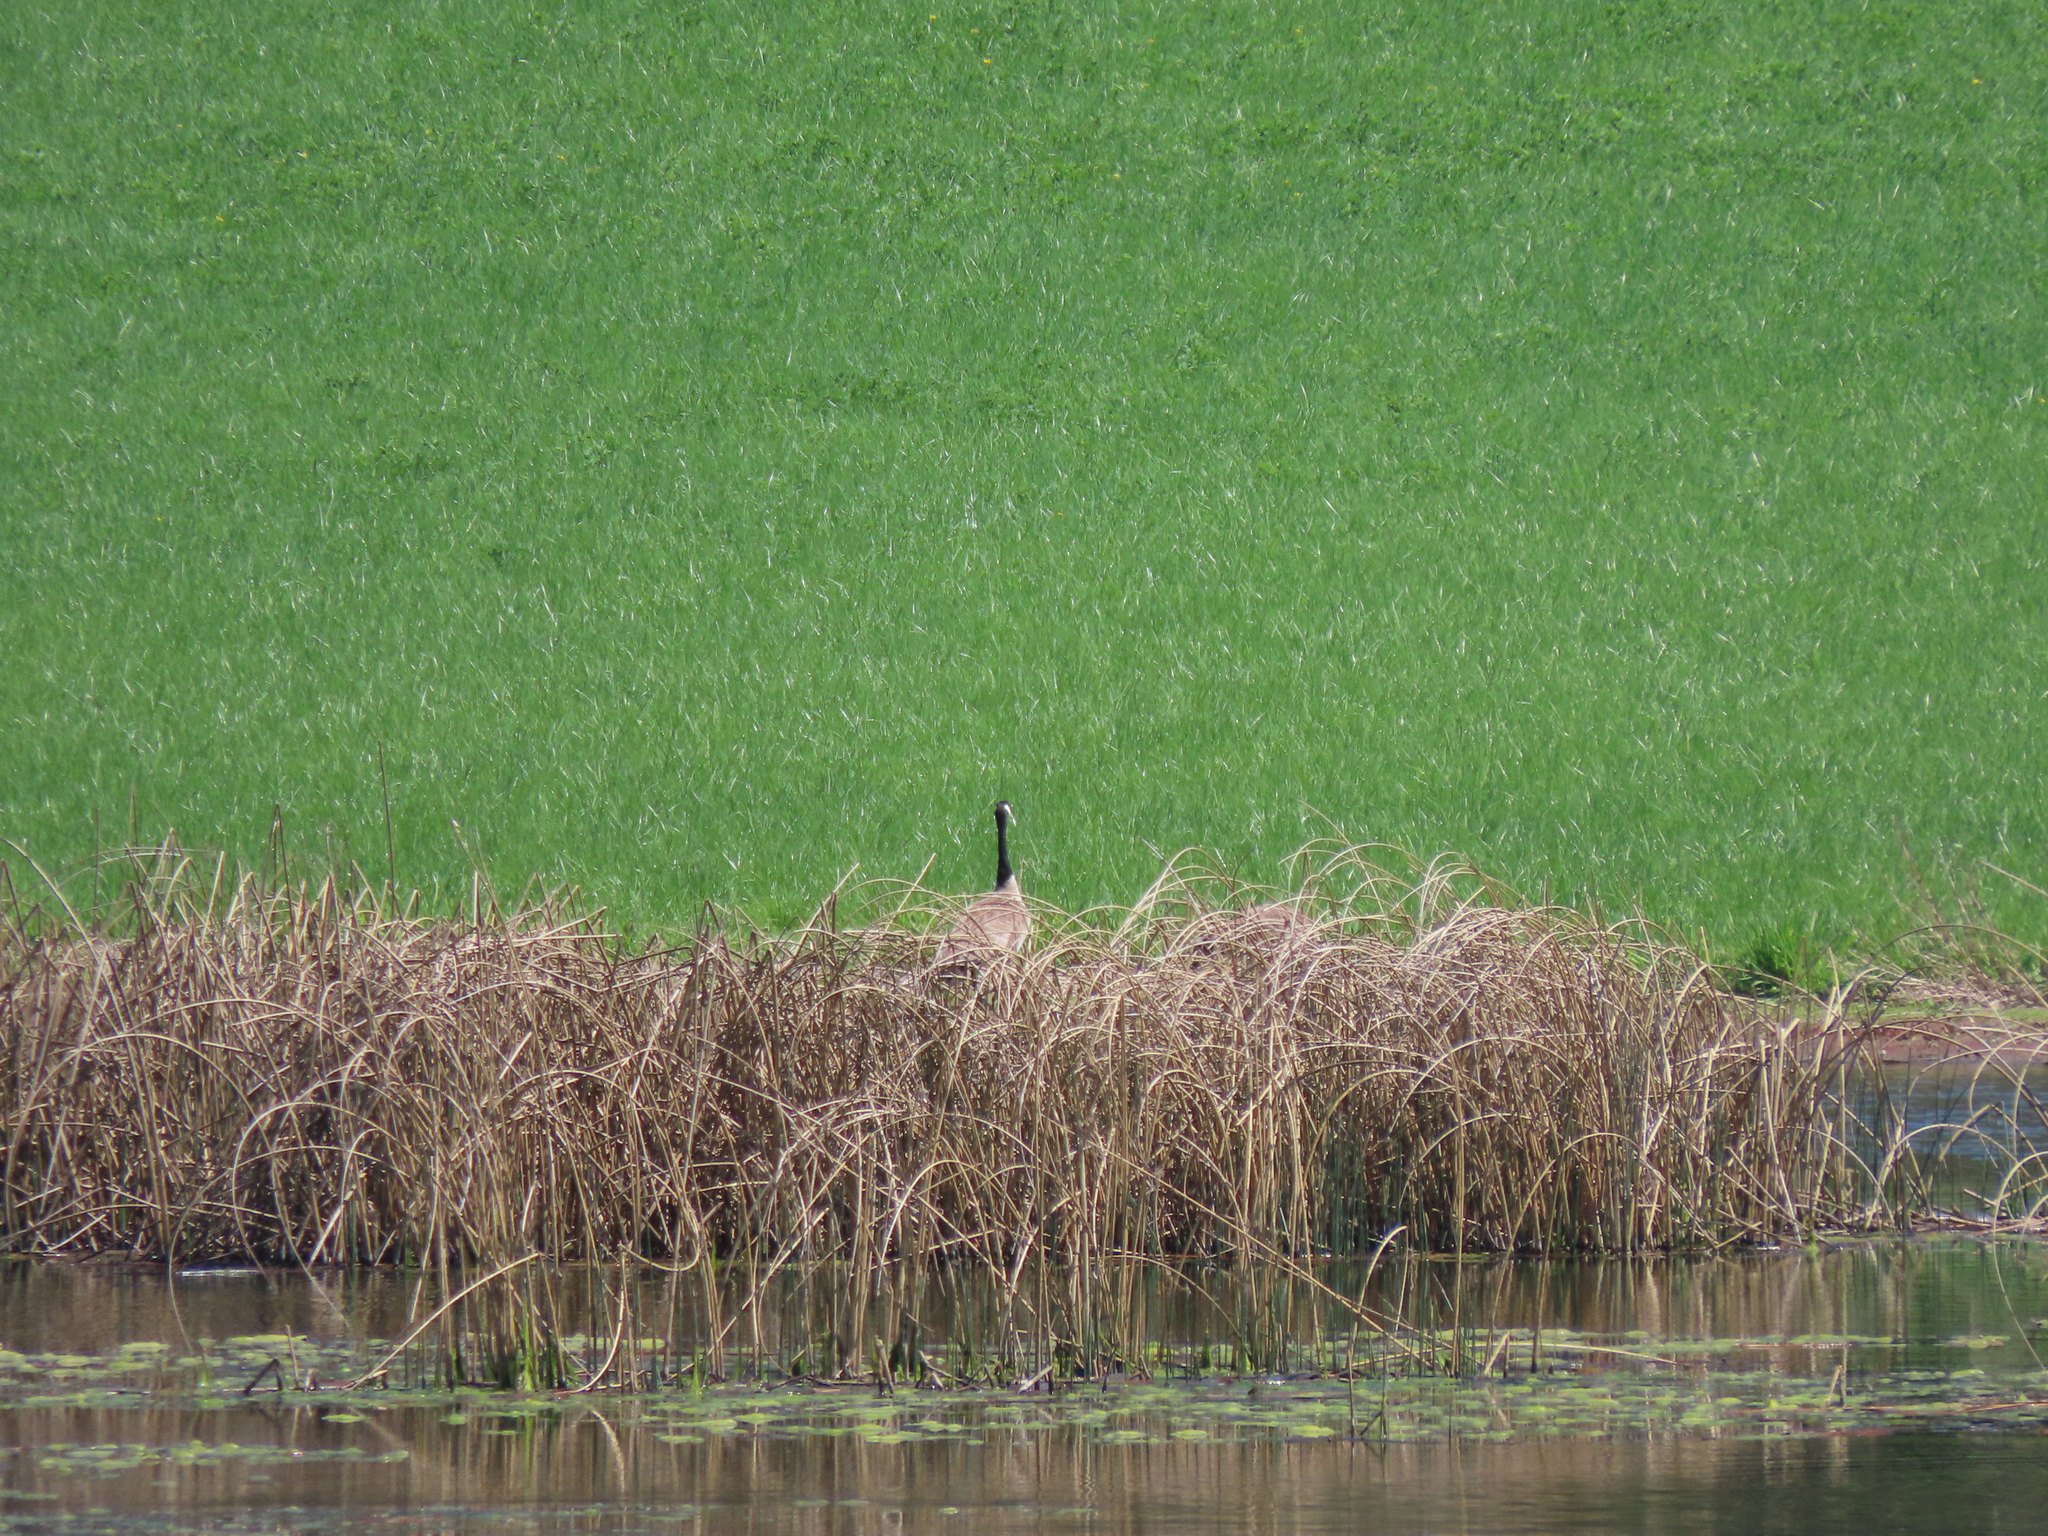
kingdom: Animalia
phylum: Chordata
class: Aves
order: Anseriformes
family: Anatidae
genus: Branta
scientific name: Branta canadensis
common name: Canada goose
